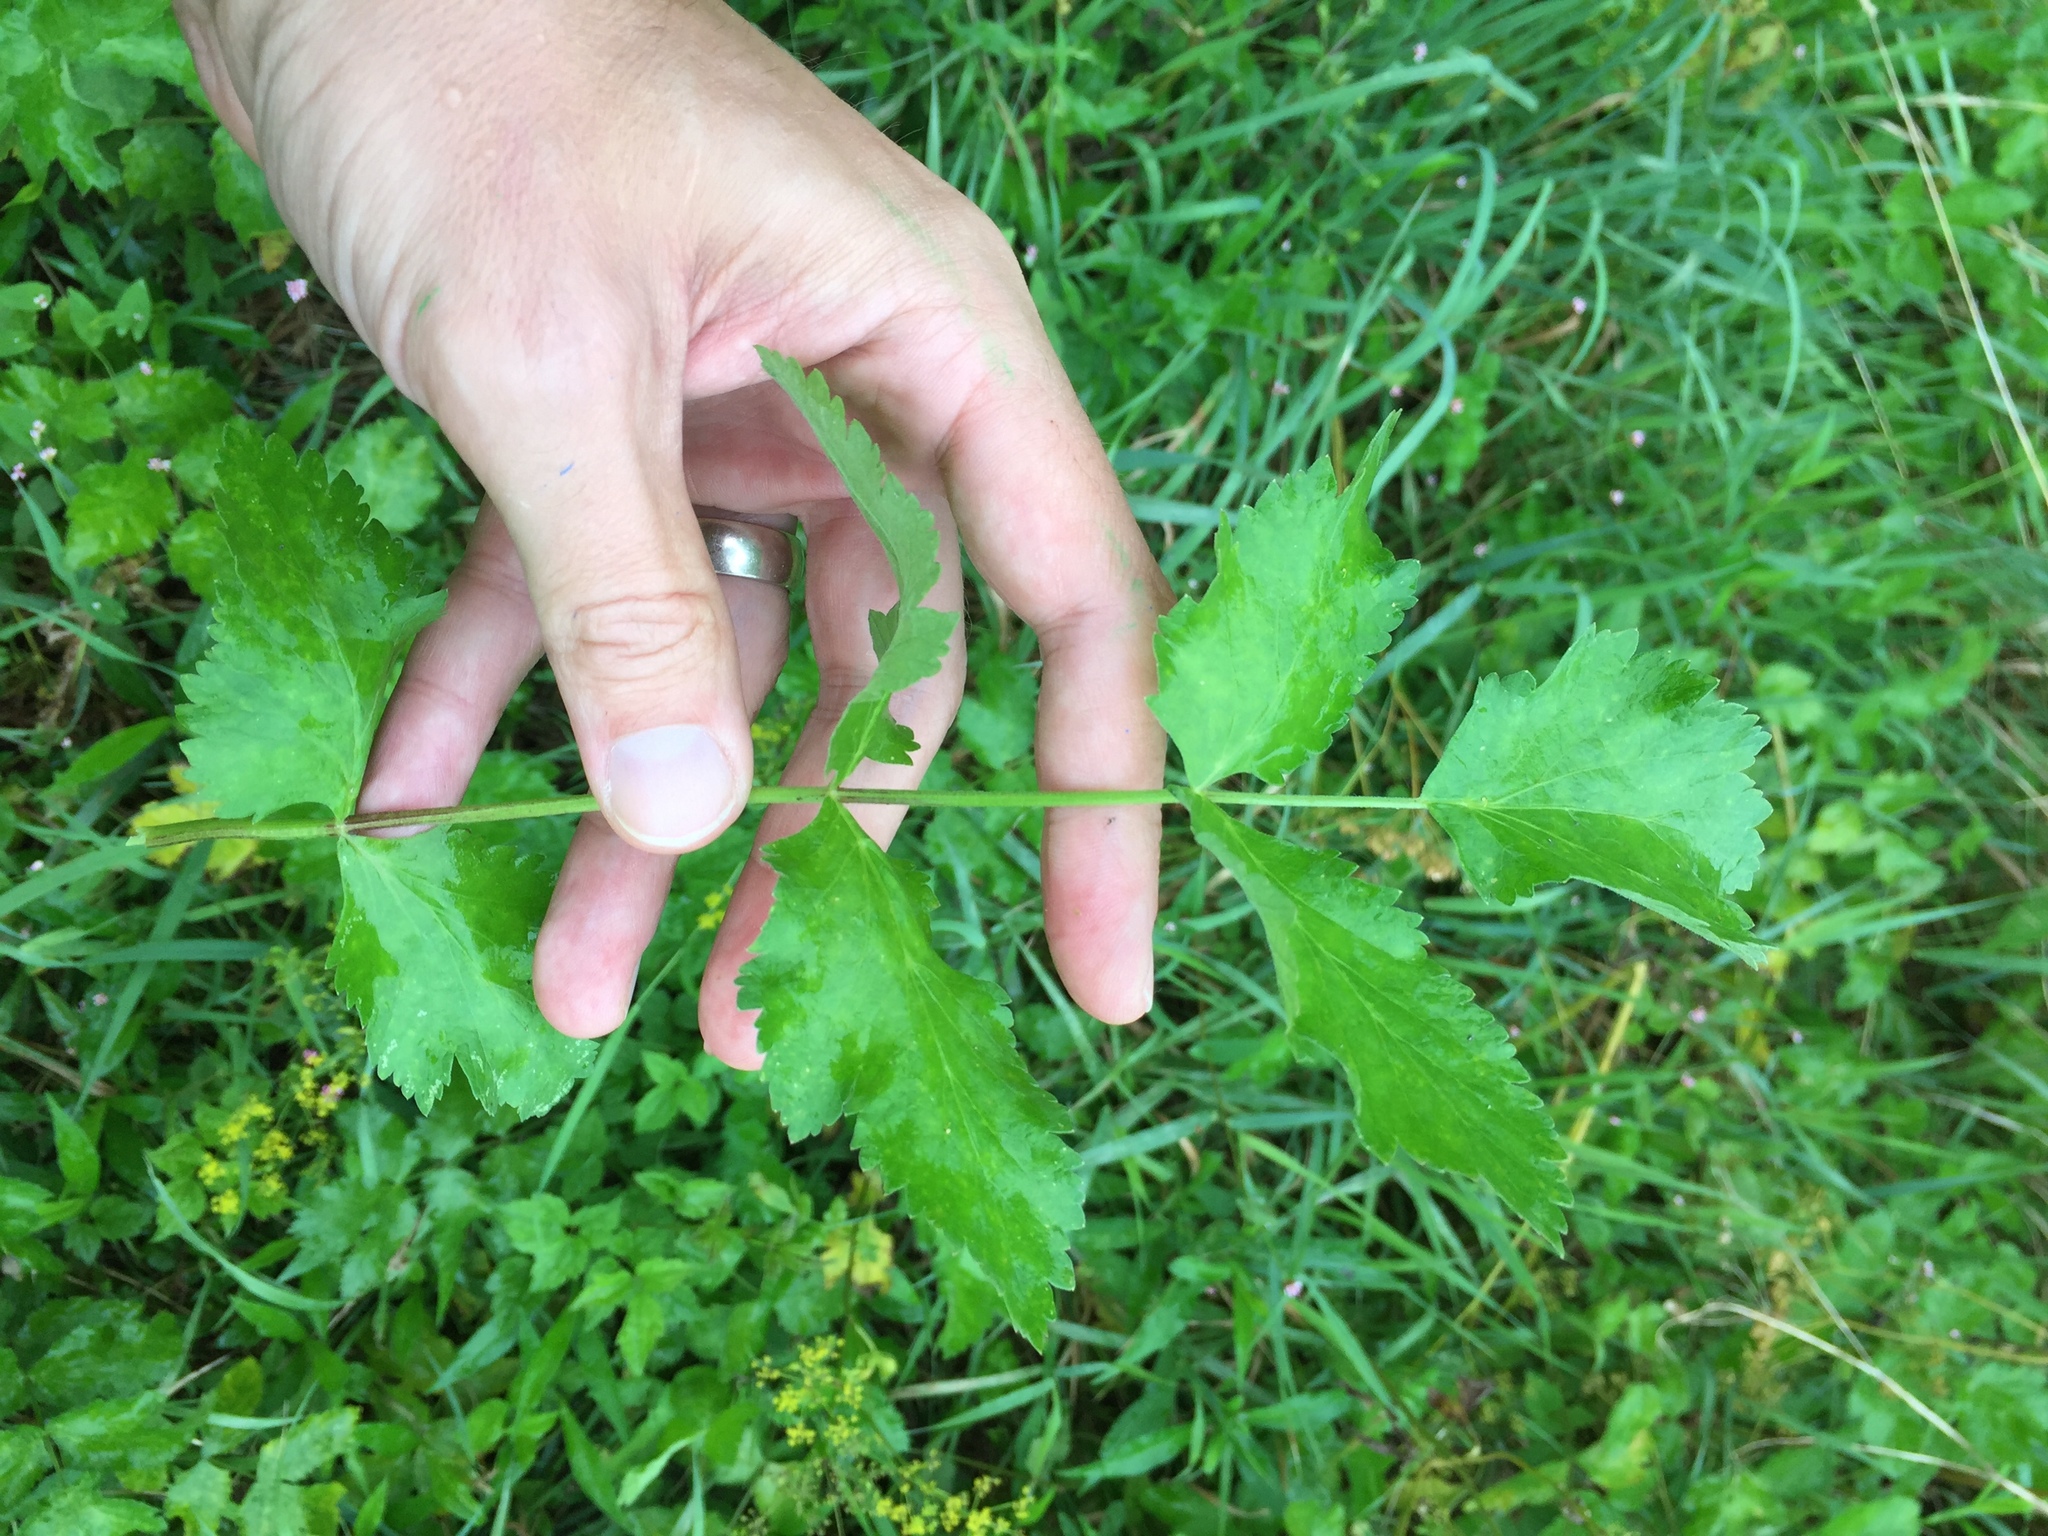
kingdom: Plantae
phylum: Tracheophyta
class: Magnoliopsida
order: Apiales
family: Apiaceae
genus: Pastinaca
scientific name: Pastinaca sativa
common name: Wild parsnip
